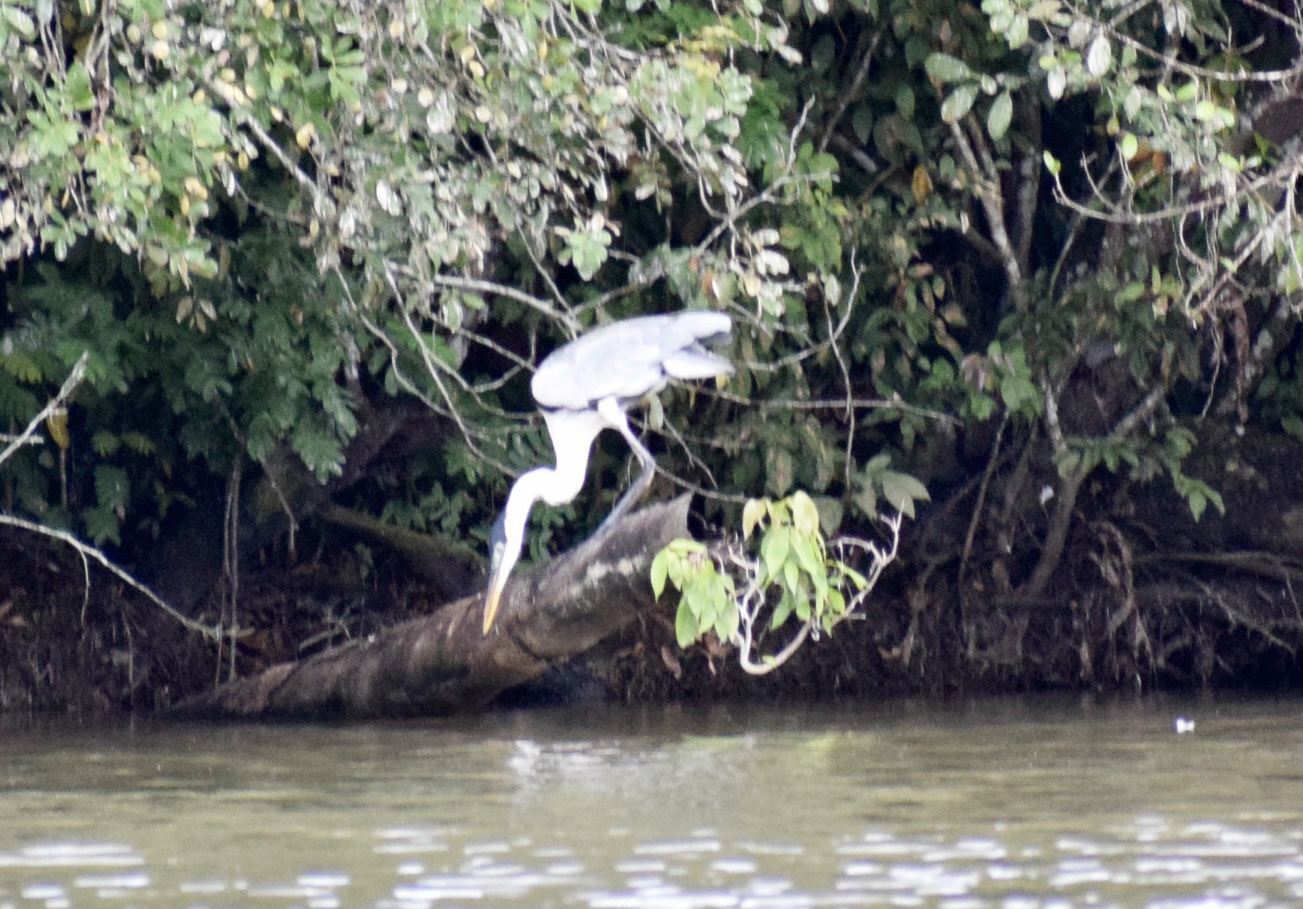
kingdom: Animalia
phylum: Chordata
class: Aves
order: Pelecaniformes
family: Ardeidae
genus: Ardea
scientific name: Ardea cocoi
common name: Cocoi heron
